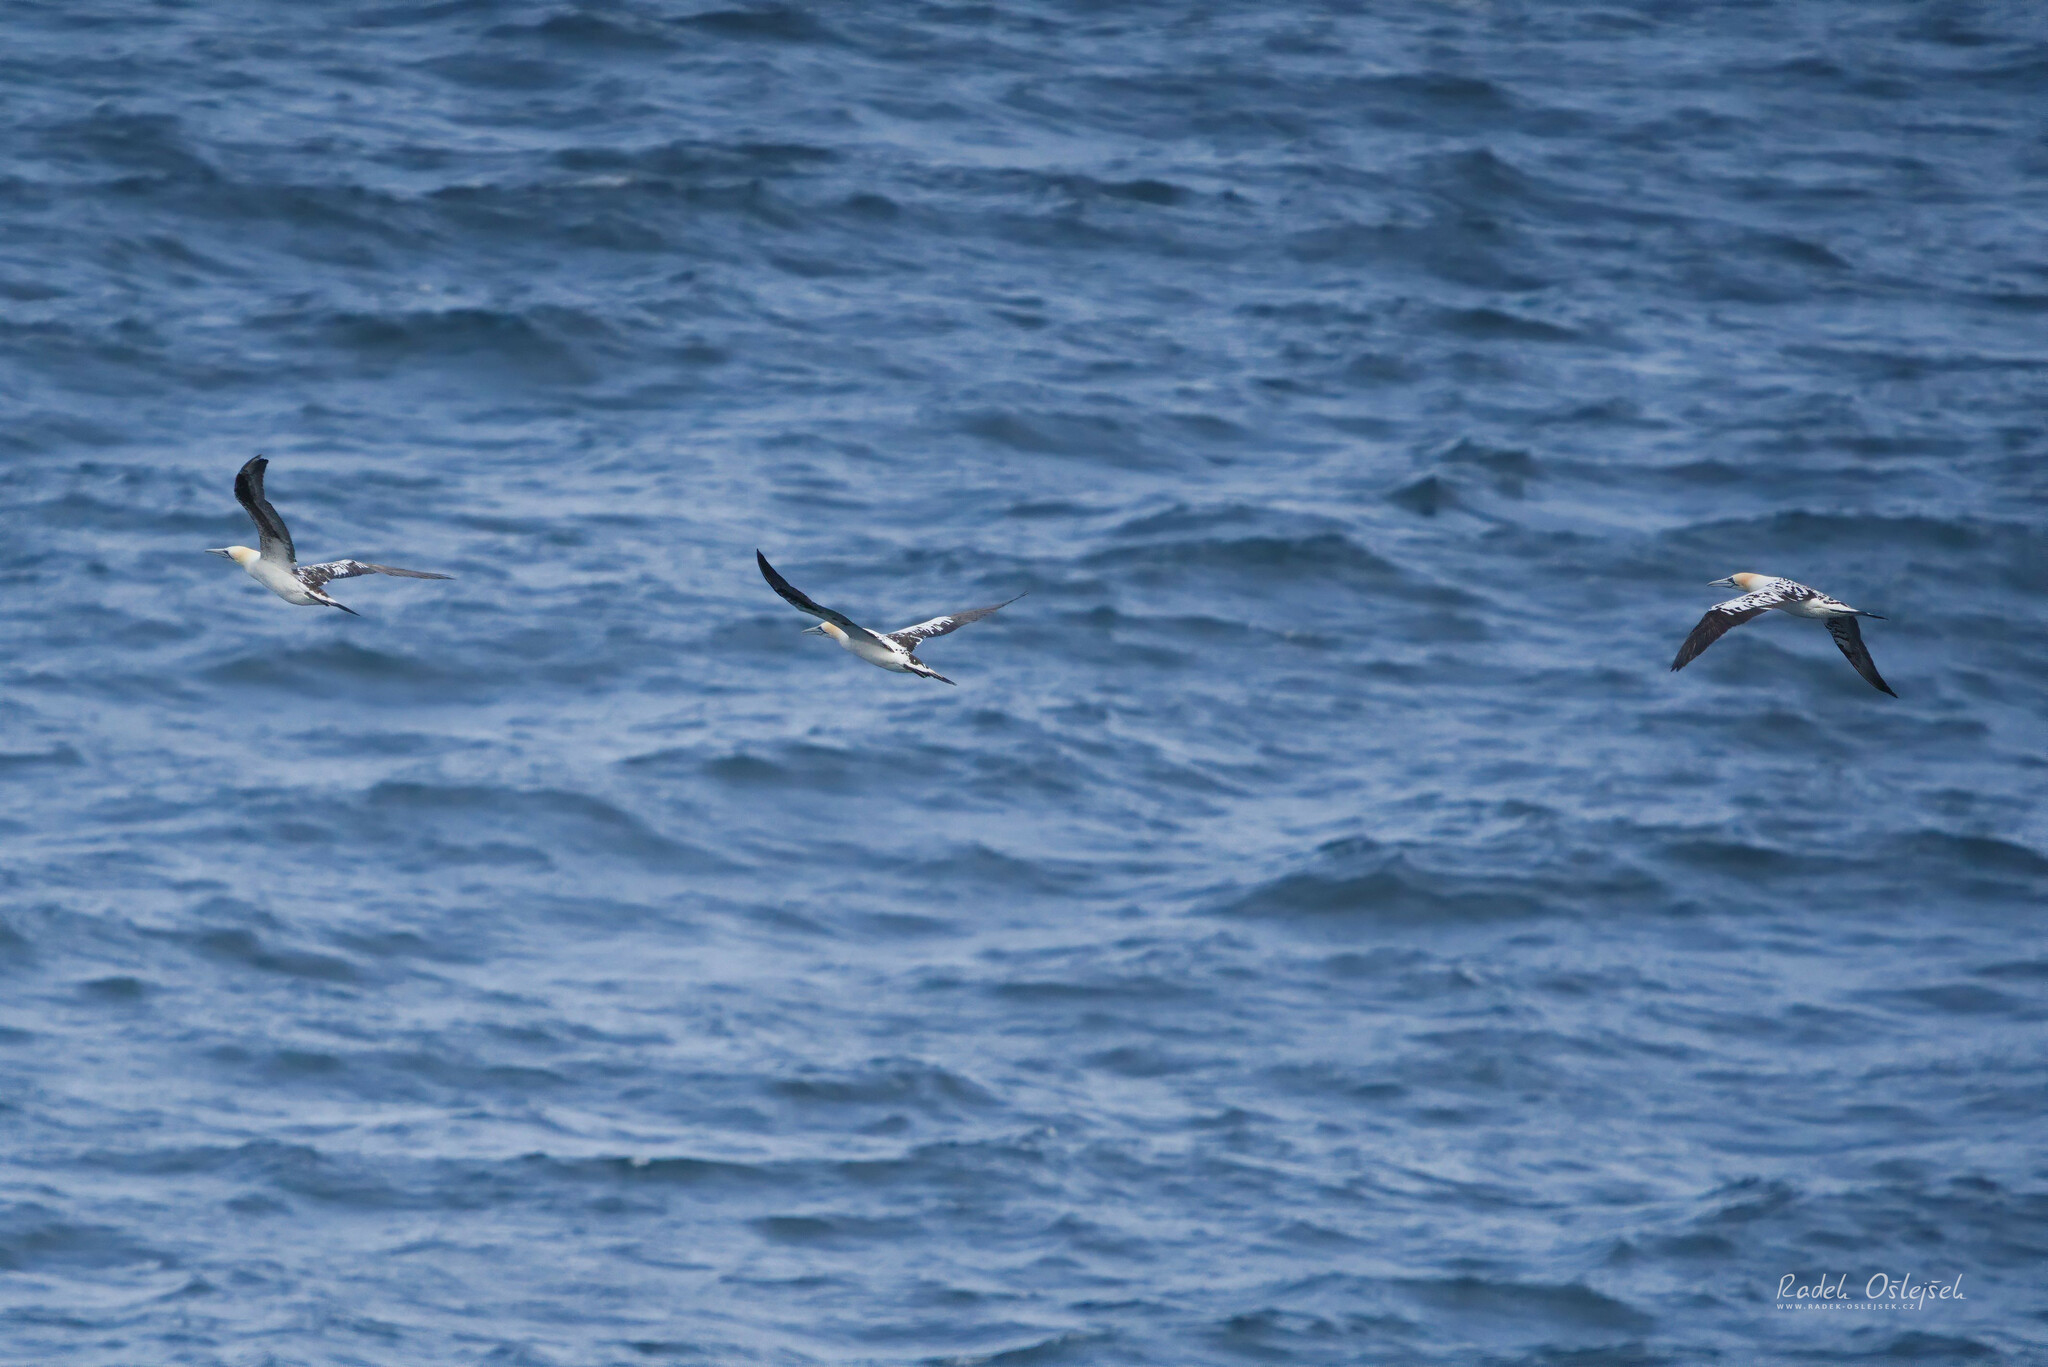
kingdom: Animalia
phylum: Chordata
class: Aves
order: Suliformes
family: Sulidae
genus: Morus
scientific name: Morus bassanus
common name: Northern gannet
